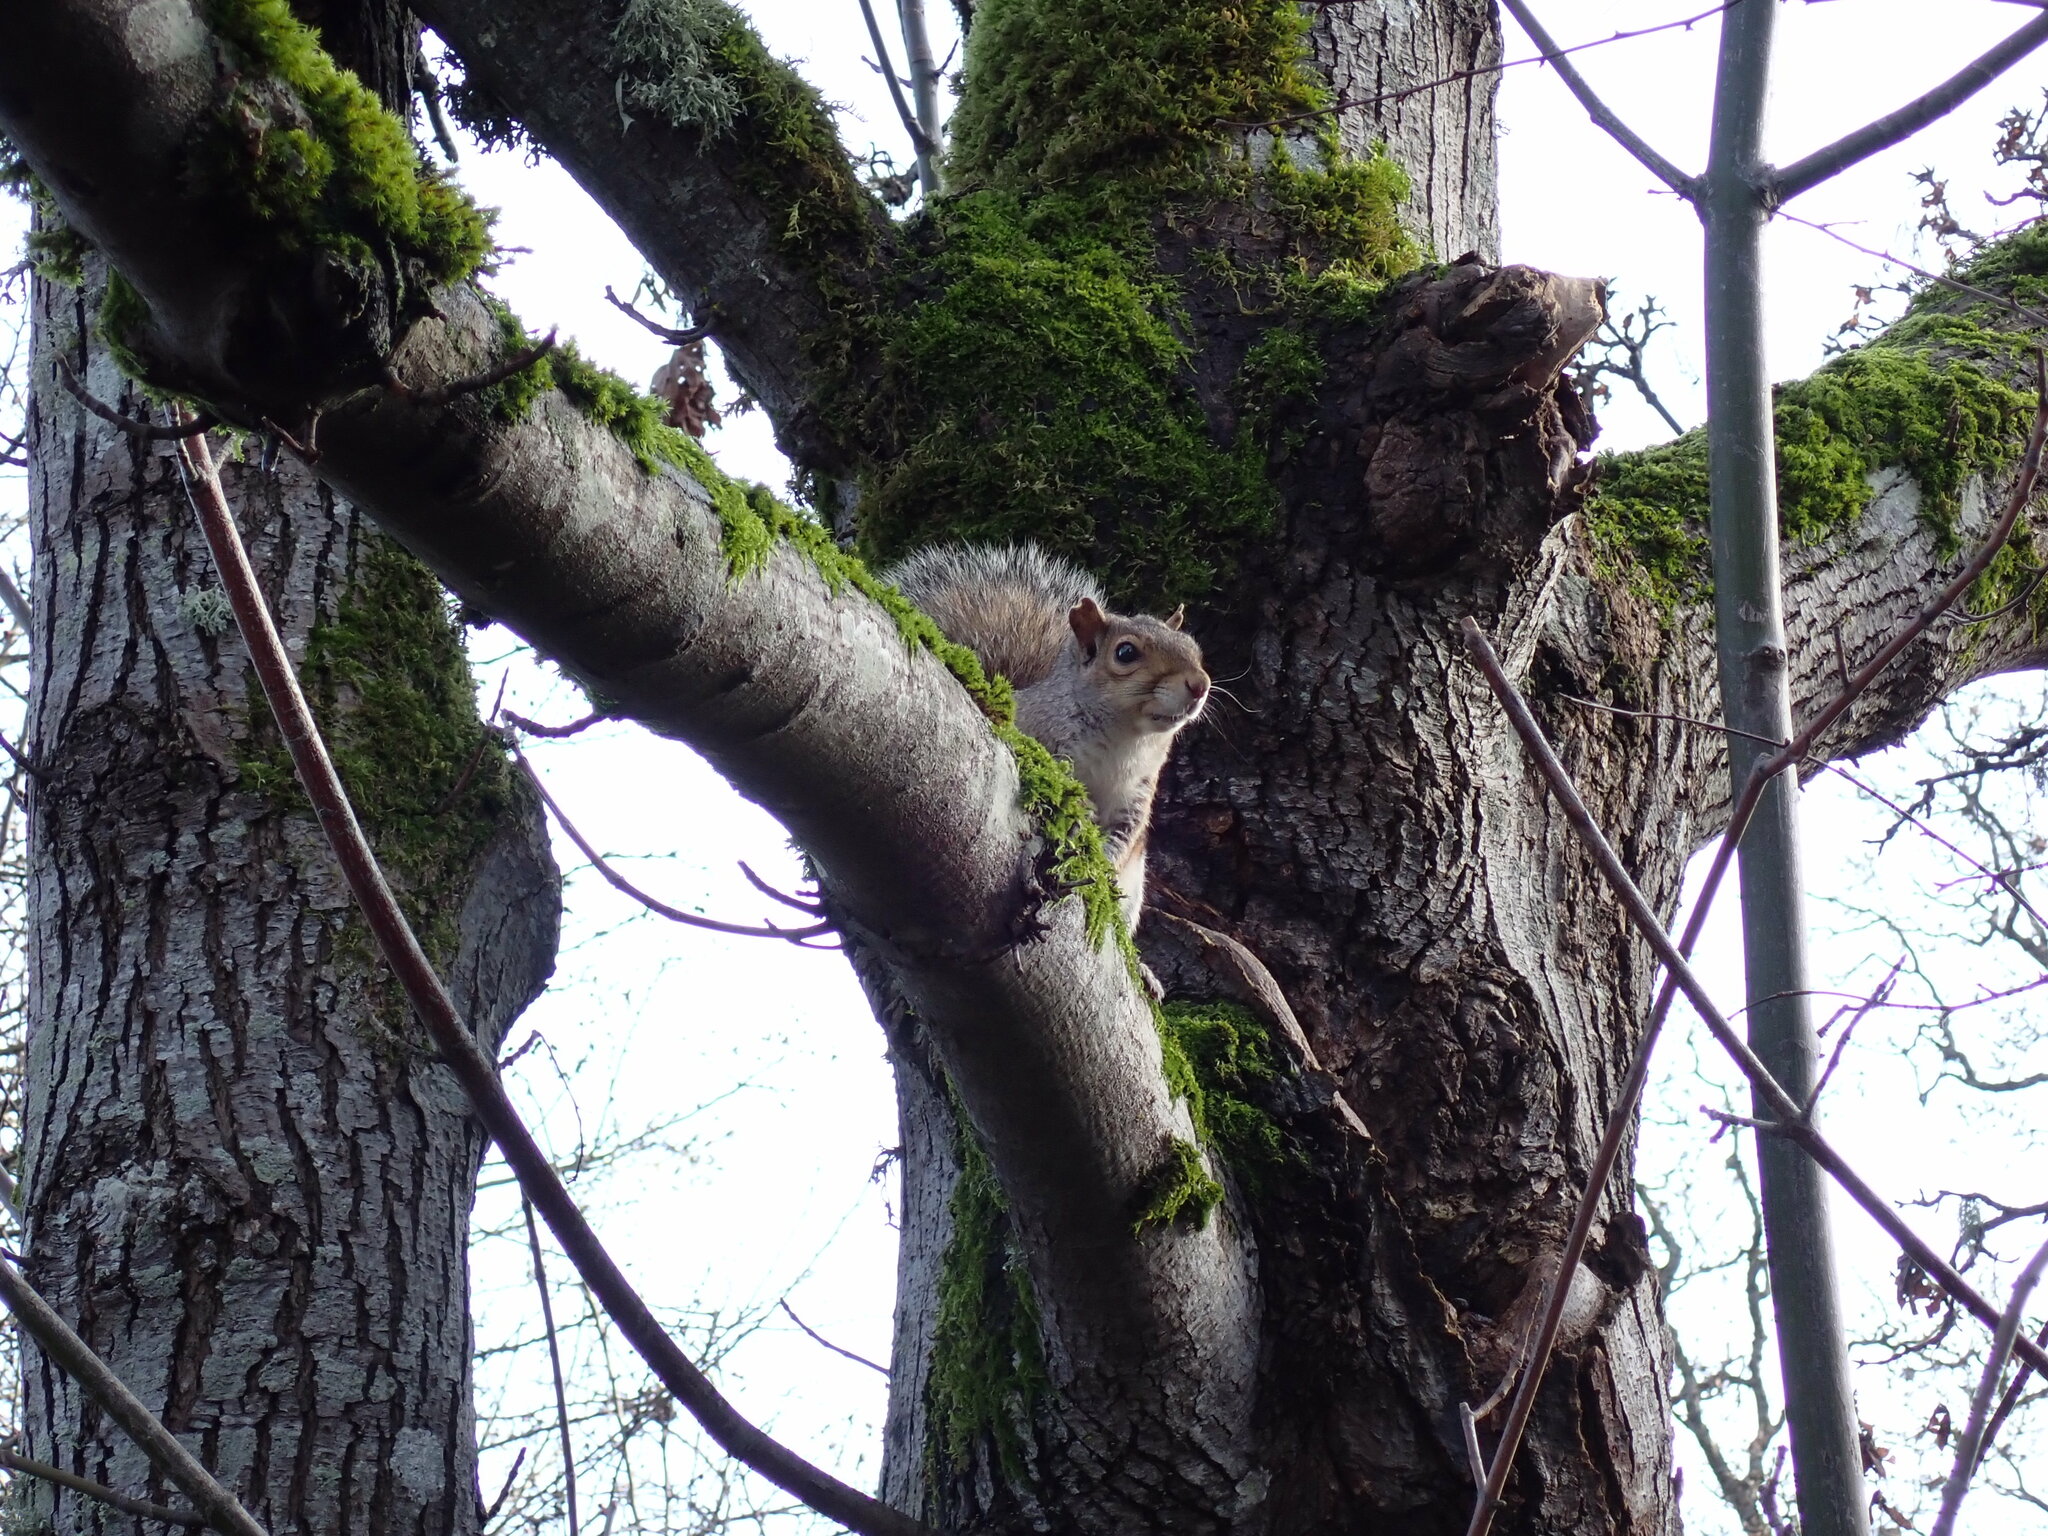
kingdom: Animalia
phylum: Chordata
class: Mammalia
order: Rodentia
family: Sciuridae
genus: Sciurus
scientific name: Sciurus carolinensis
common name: Eastern gray squirrel
